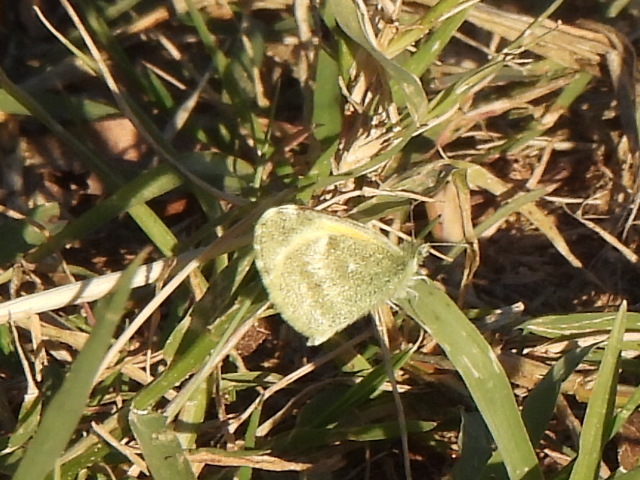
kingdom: Animalia
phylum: Arthropoda
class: Insecta
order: Lepidoptera
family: Pieridae
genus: Nathalis
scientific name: Nathalis iole
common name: Dainty sulphur
